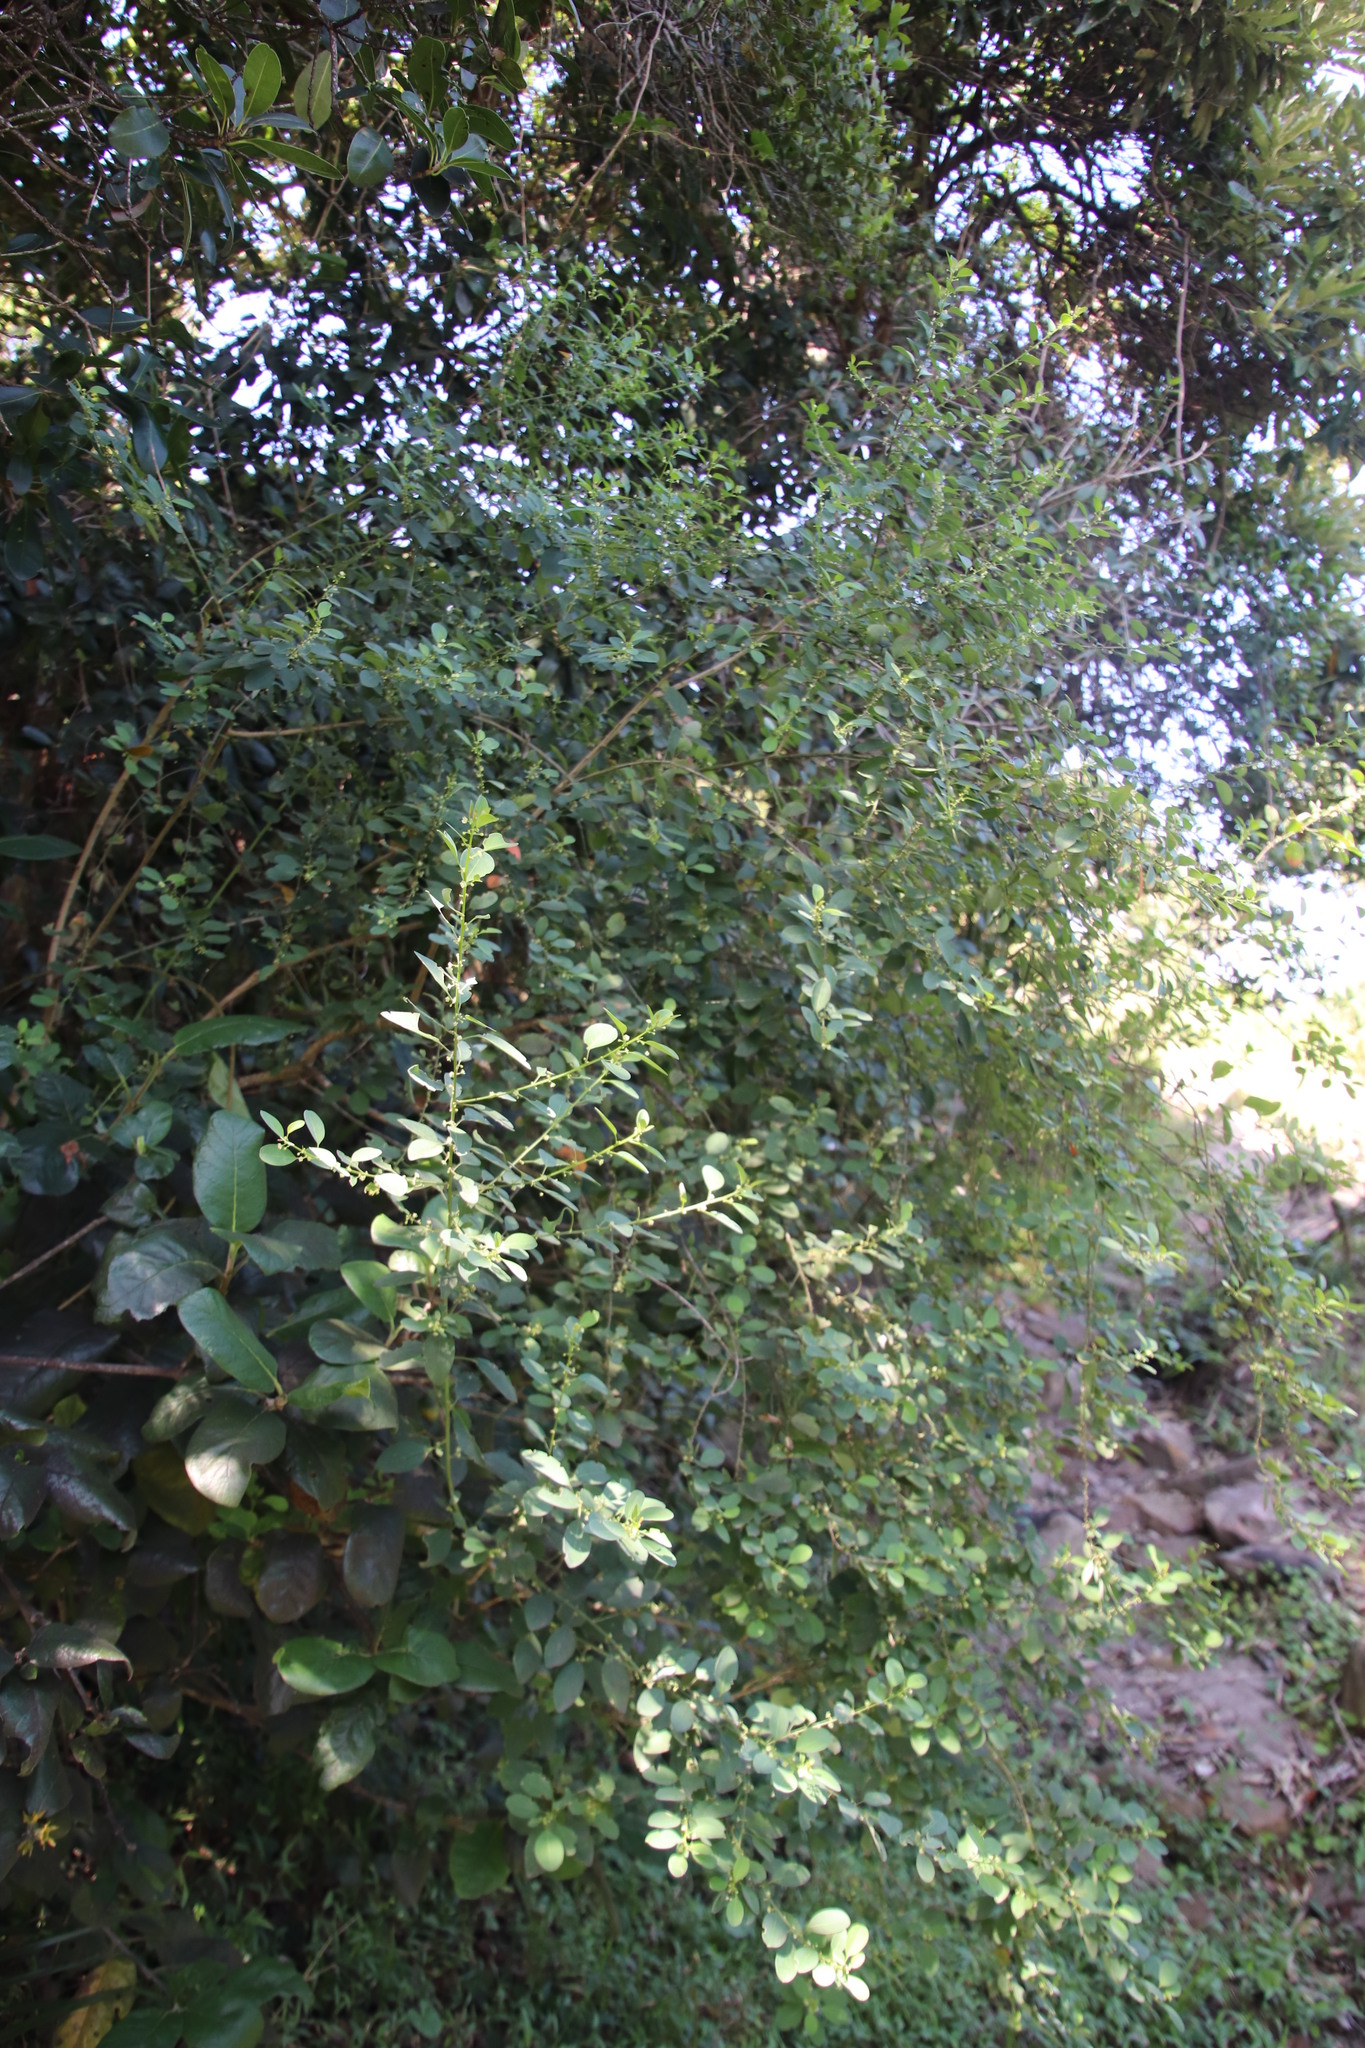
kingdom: Plantae
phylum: Tracheophyta
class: Magnoliopsida
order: Malpighiales
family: Peraceae
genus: Clutia
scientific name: Clutia pulchella
